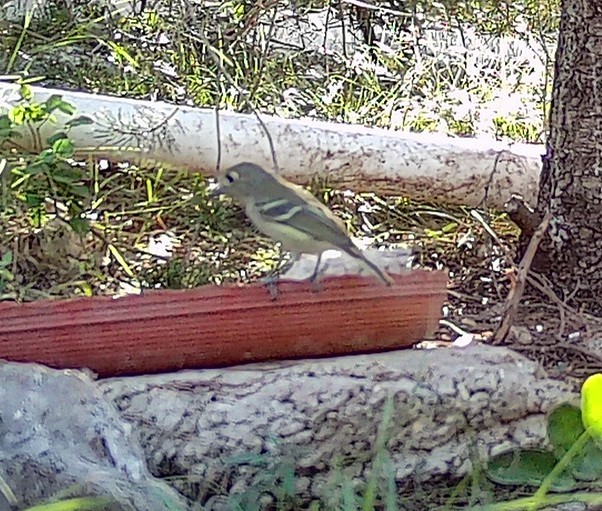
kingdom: Animalia
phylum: Chordata
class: Aves
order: Passeriformes
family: Vireonidae
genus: Vireo
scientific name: Vireo huttoni
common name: Hutton's vireo
